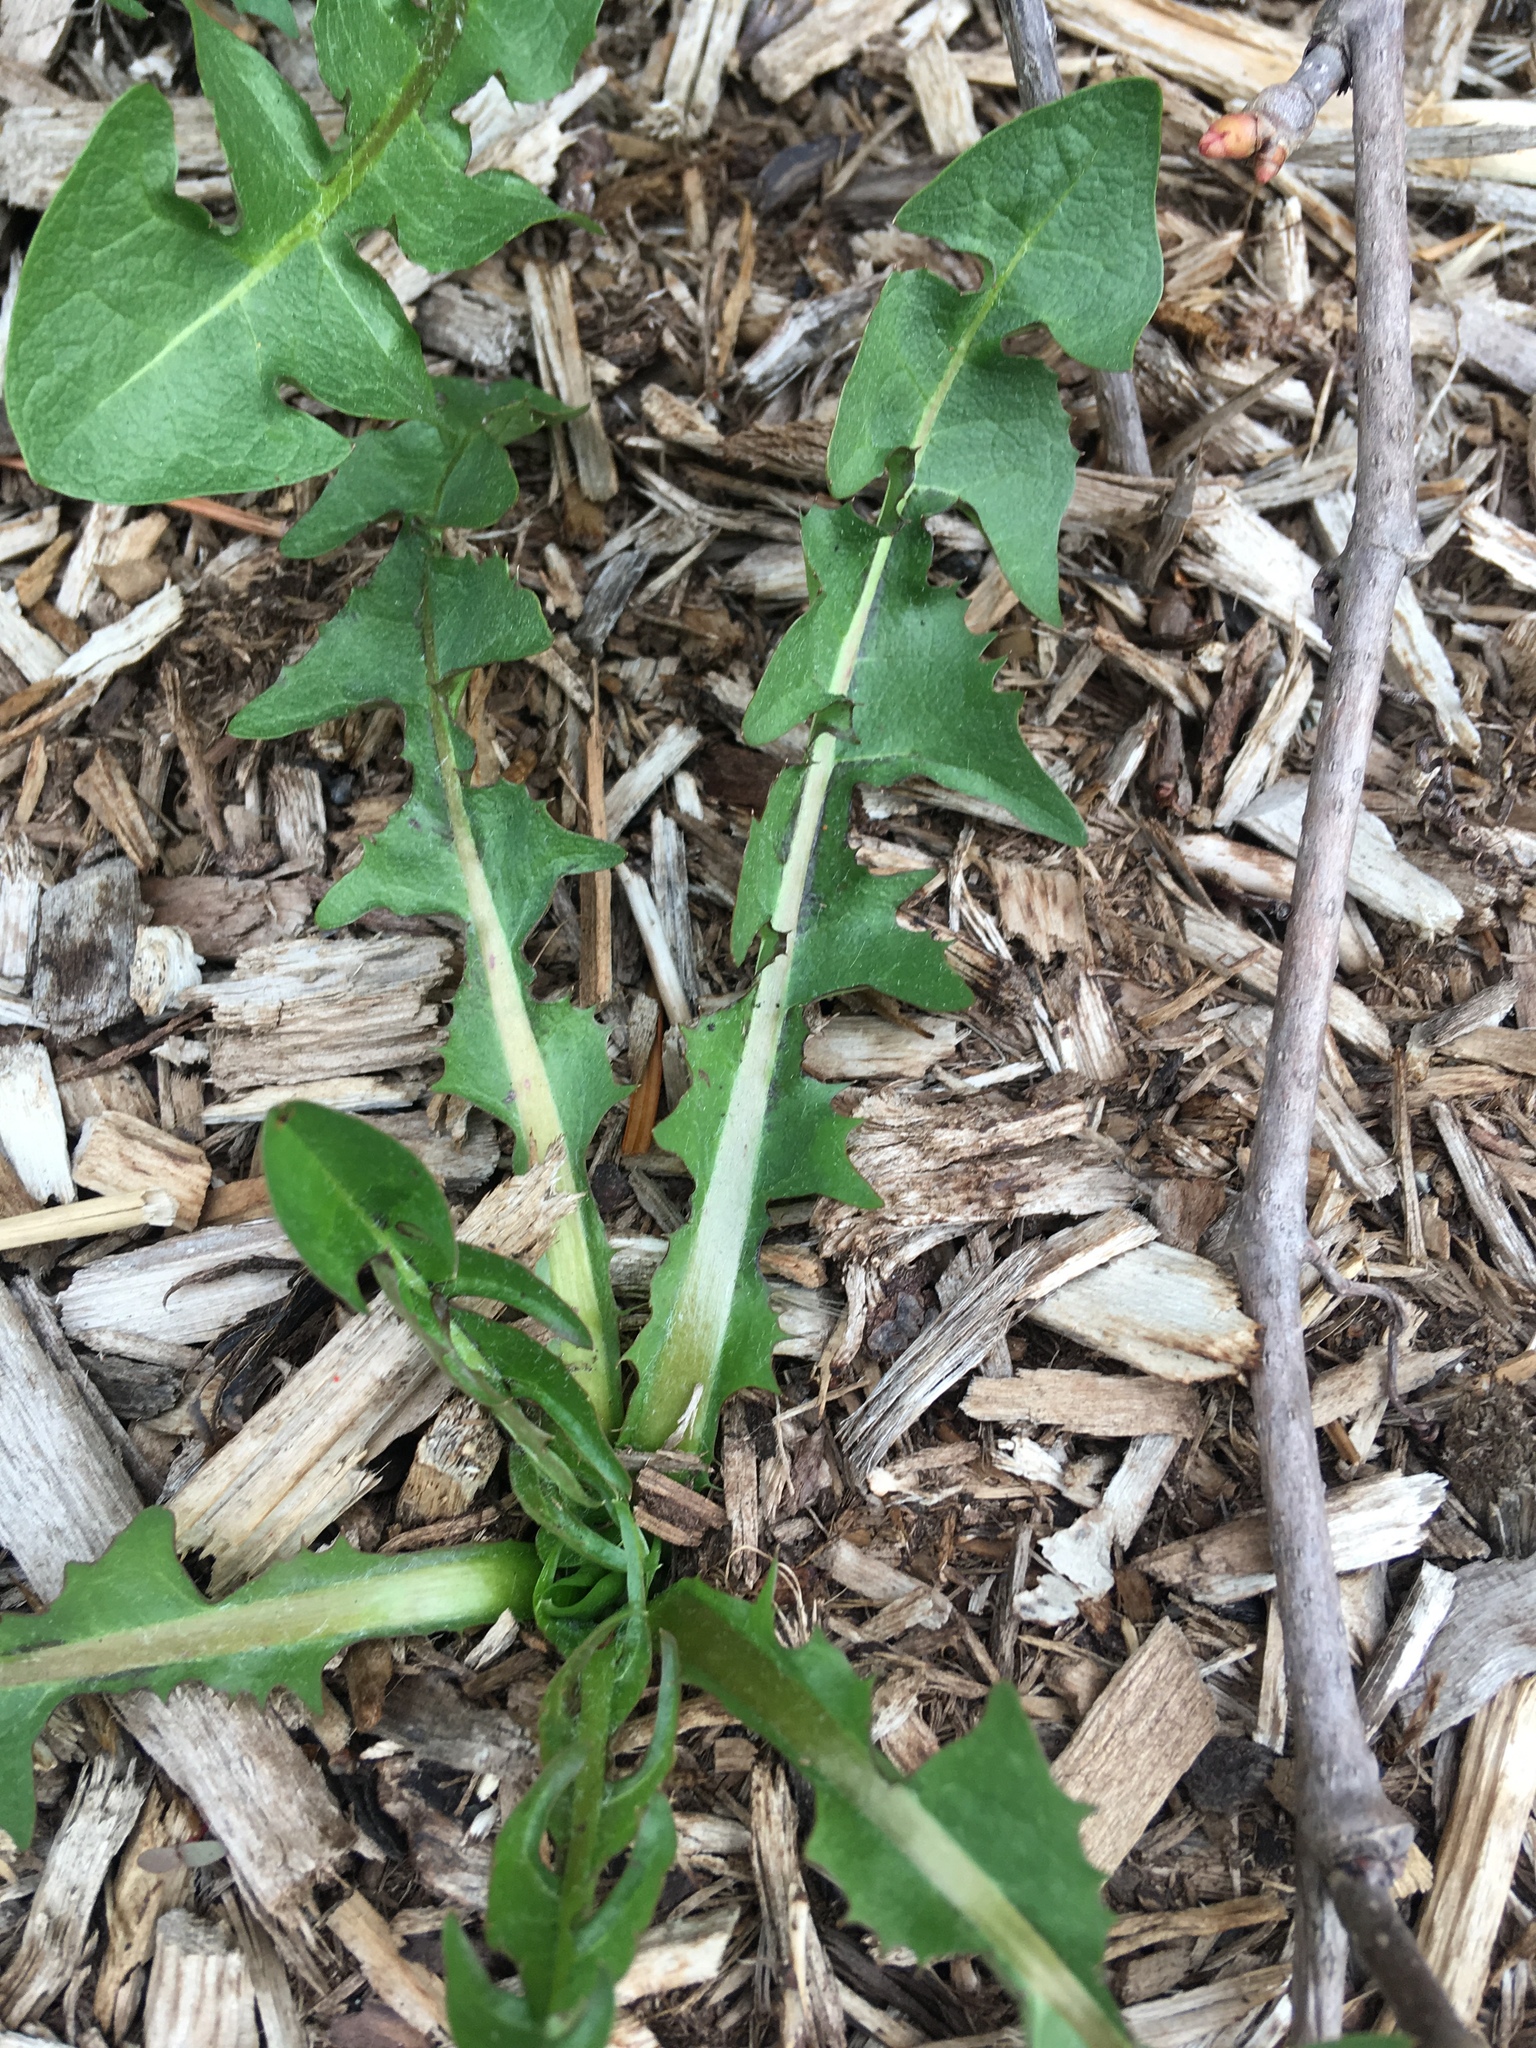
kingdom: Plantae
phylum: Tracheophyta
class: Magnoliopsida
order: Asterales
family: Asteraceae
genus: Taraxacum
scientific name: Taraxacum officinale
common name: Common dandelion
